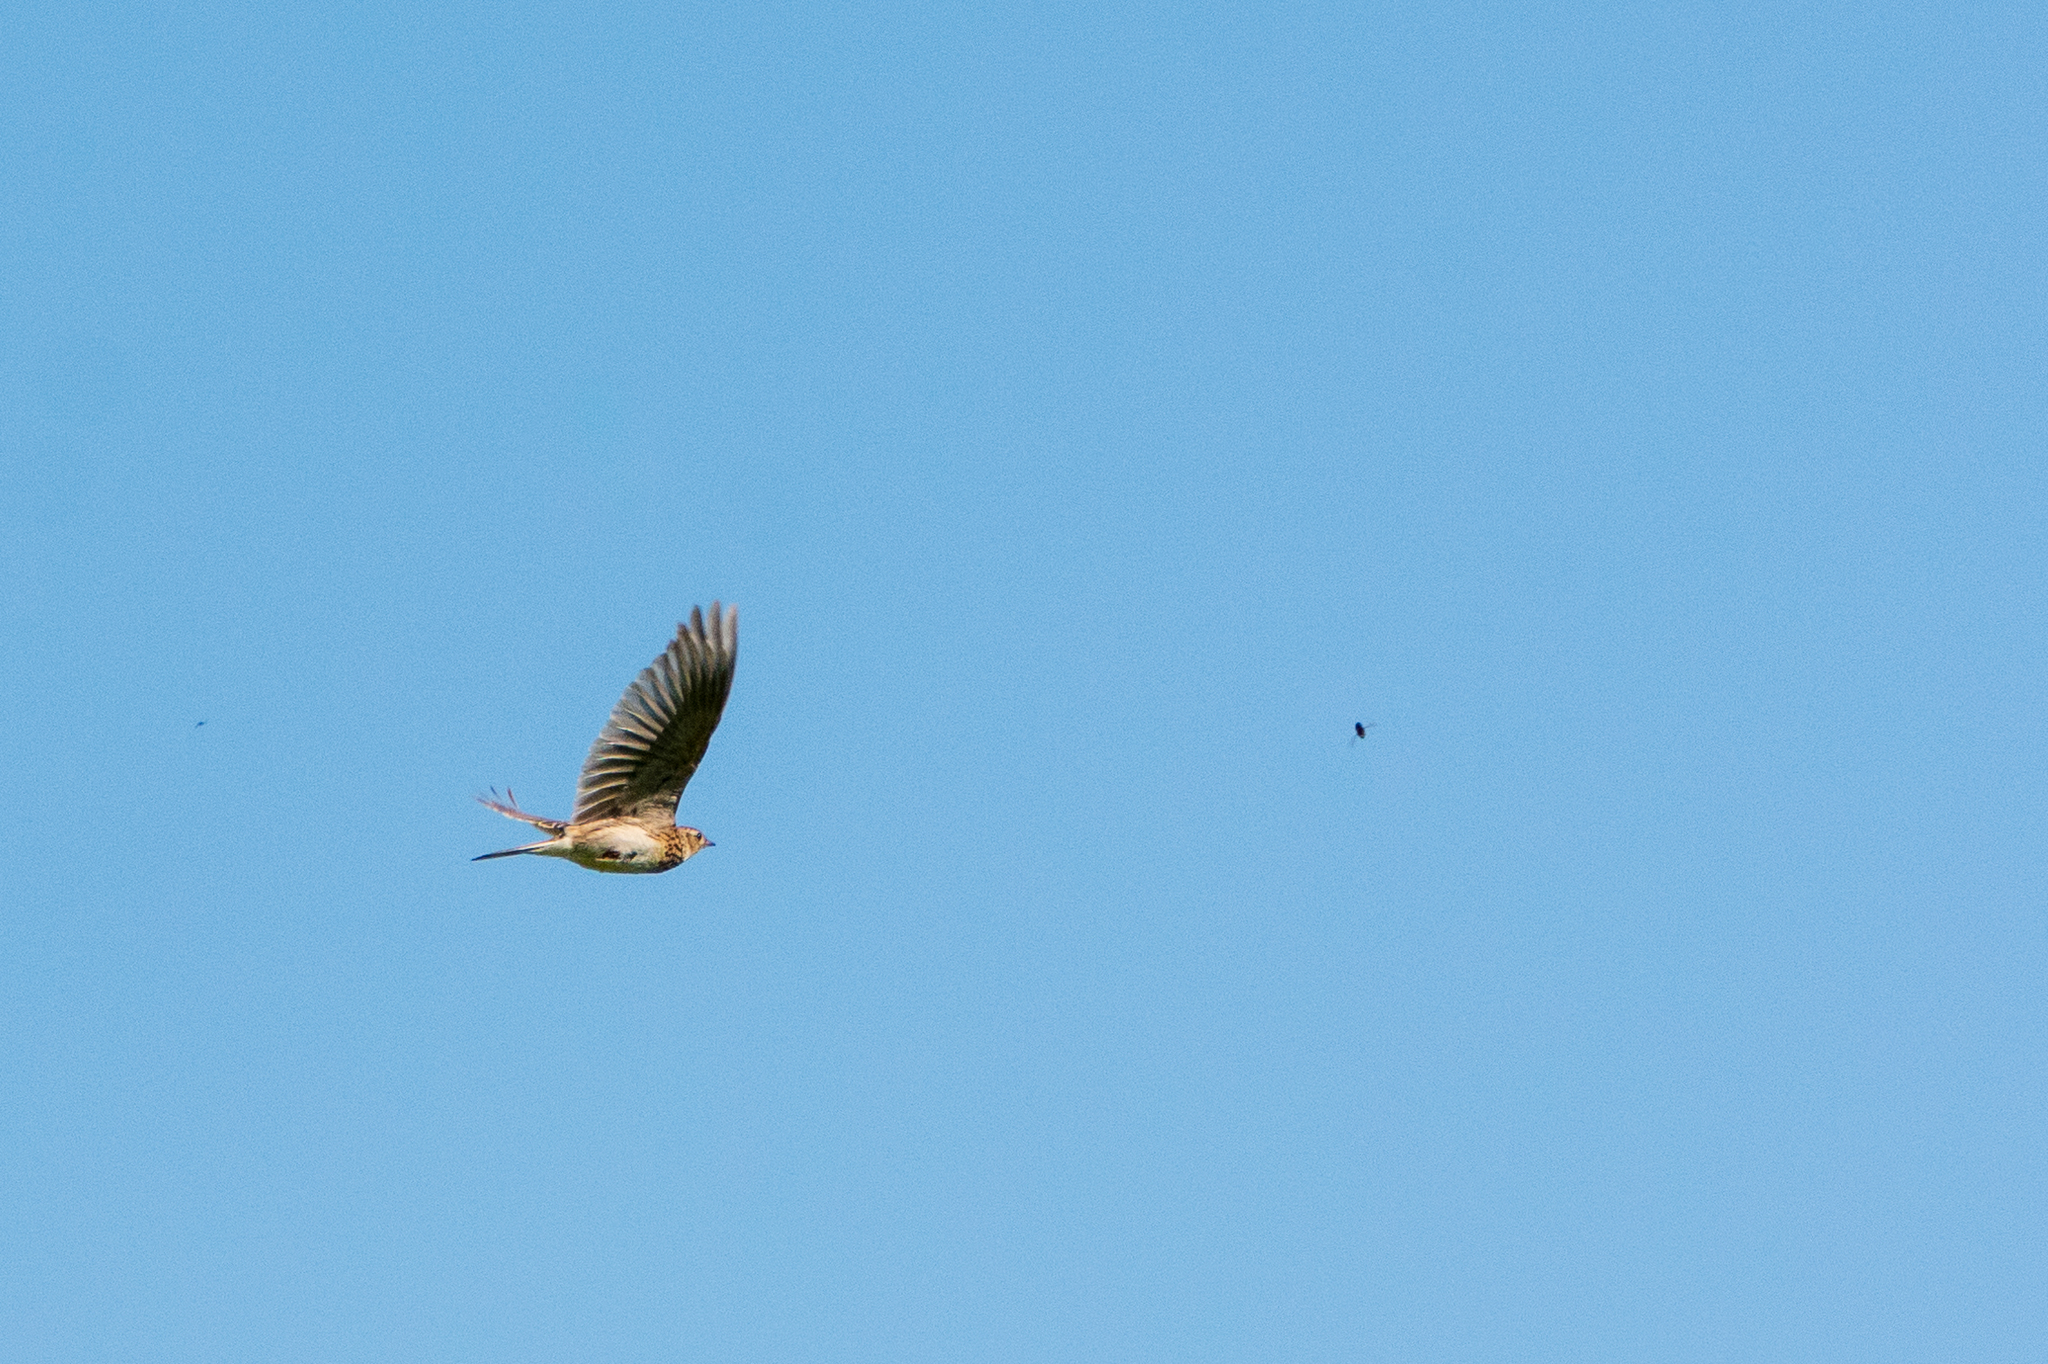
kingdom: Animalia
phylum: Chordata
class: Aves
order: Passeriformes
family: Alaudidae
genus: Alauda
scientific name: Alauda arvensis
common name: Eurasian skylark
